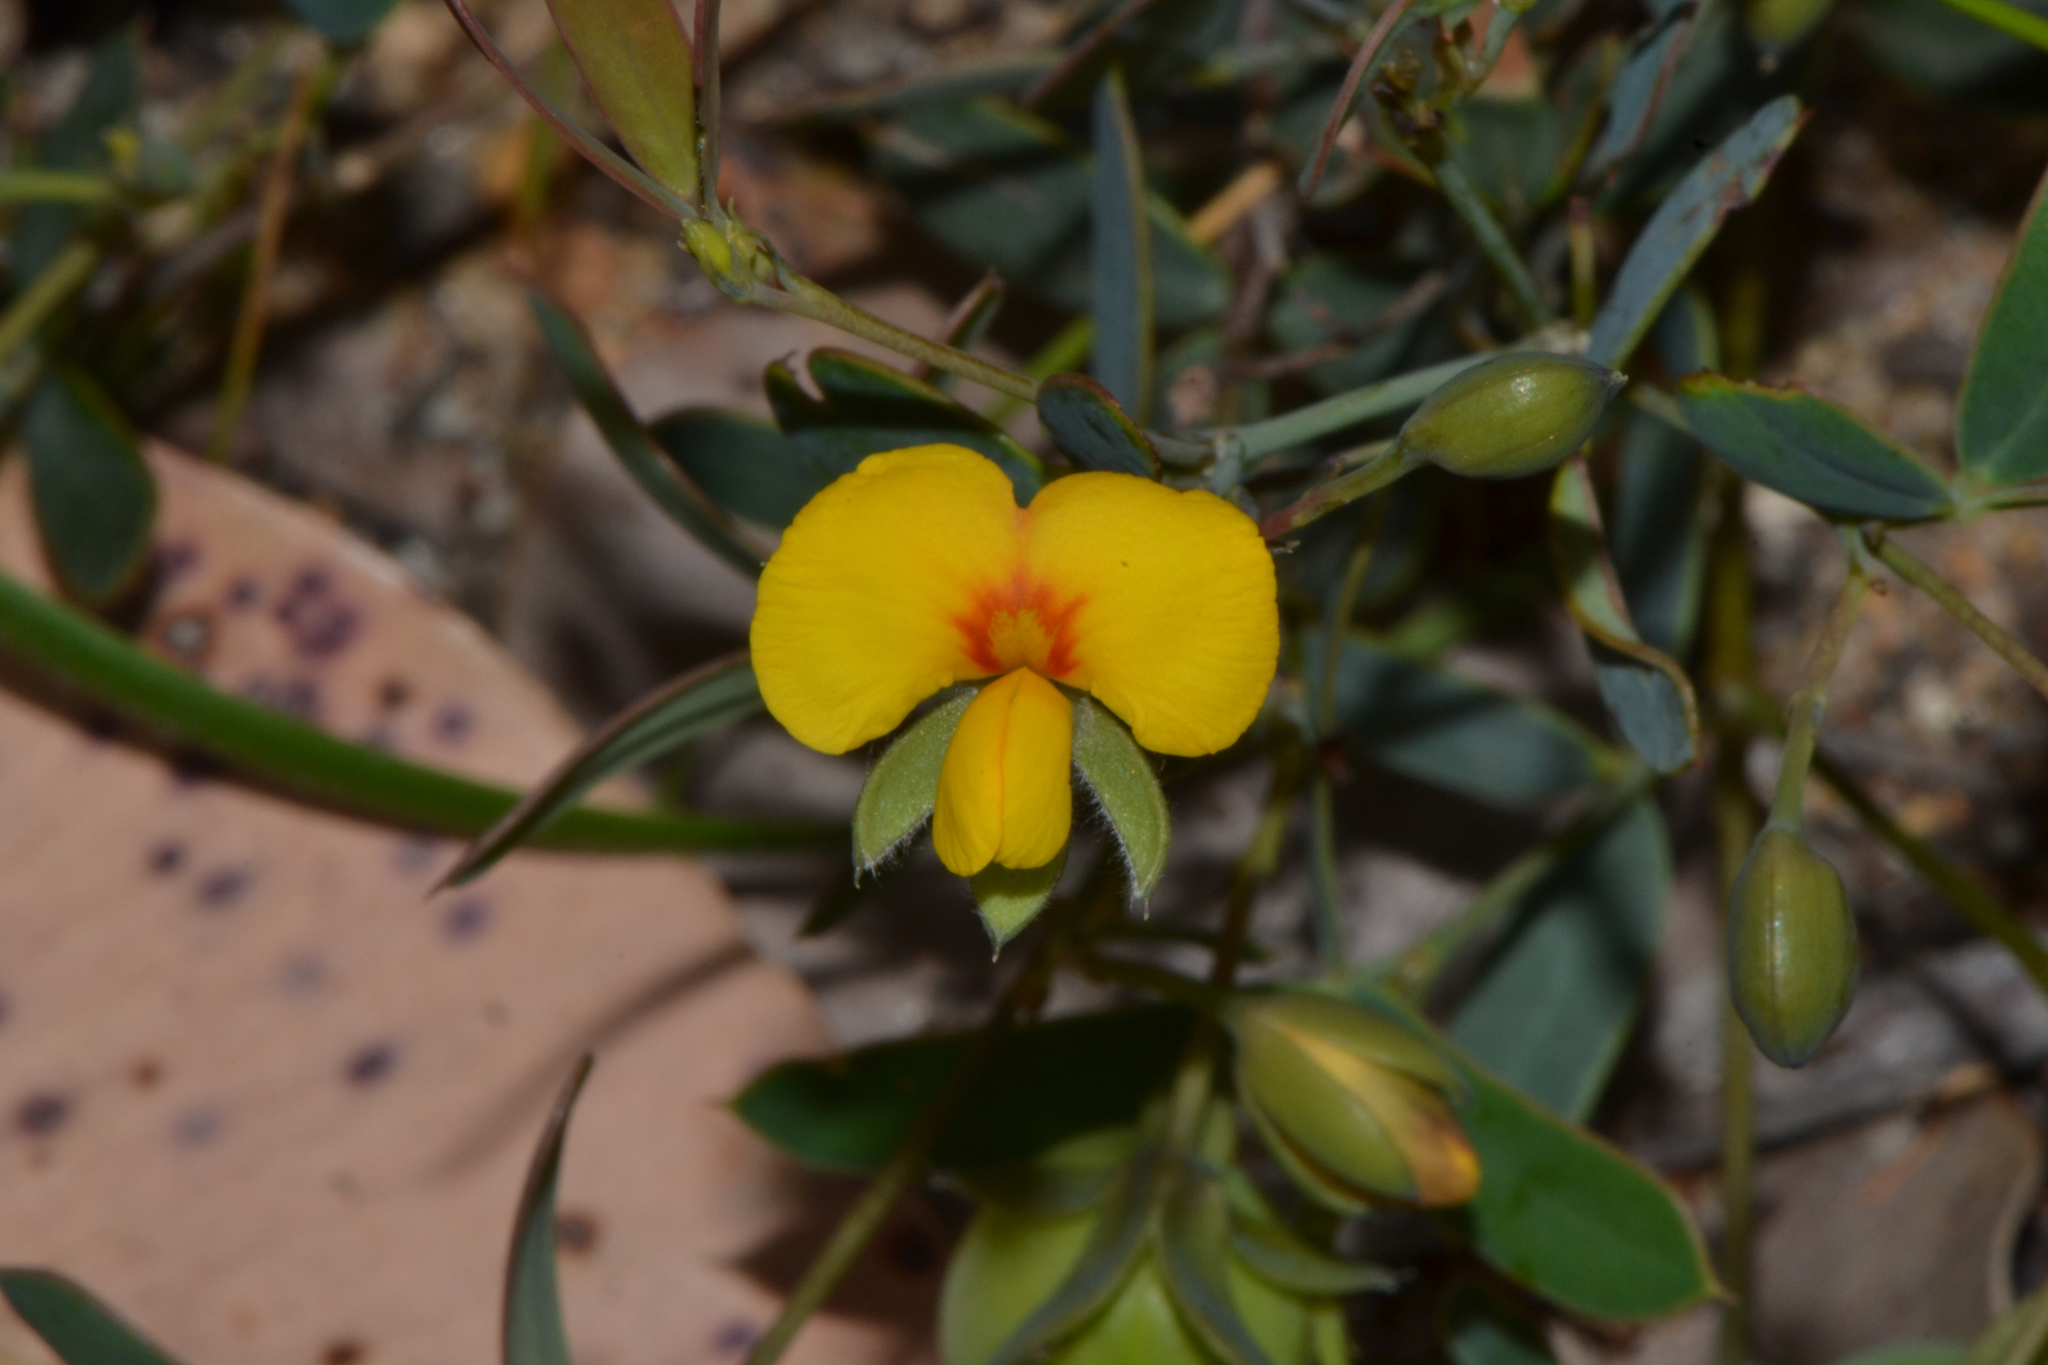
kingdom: Plantae
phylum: Tracheophyta
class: Magnoliopsida
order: Fabales
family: Fabaceae
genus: Gompholobium
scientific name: Gompholobium marginatum
